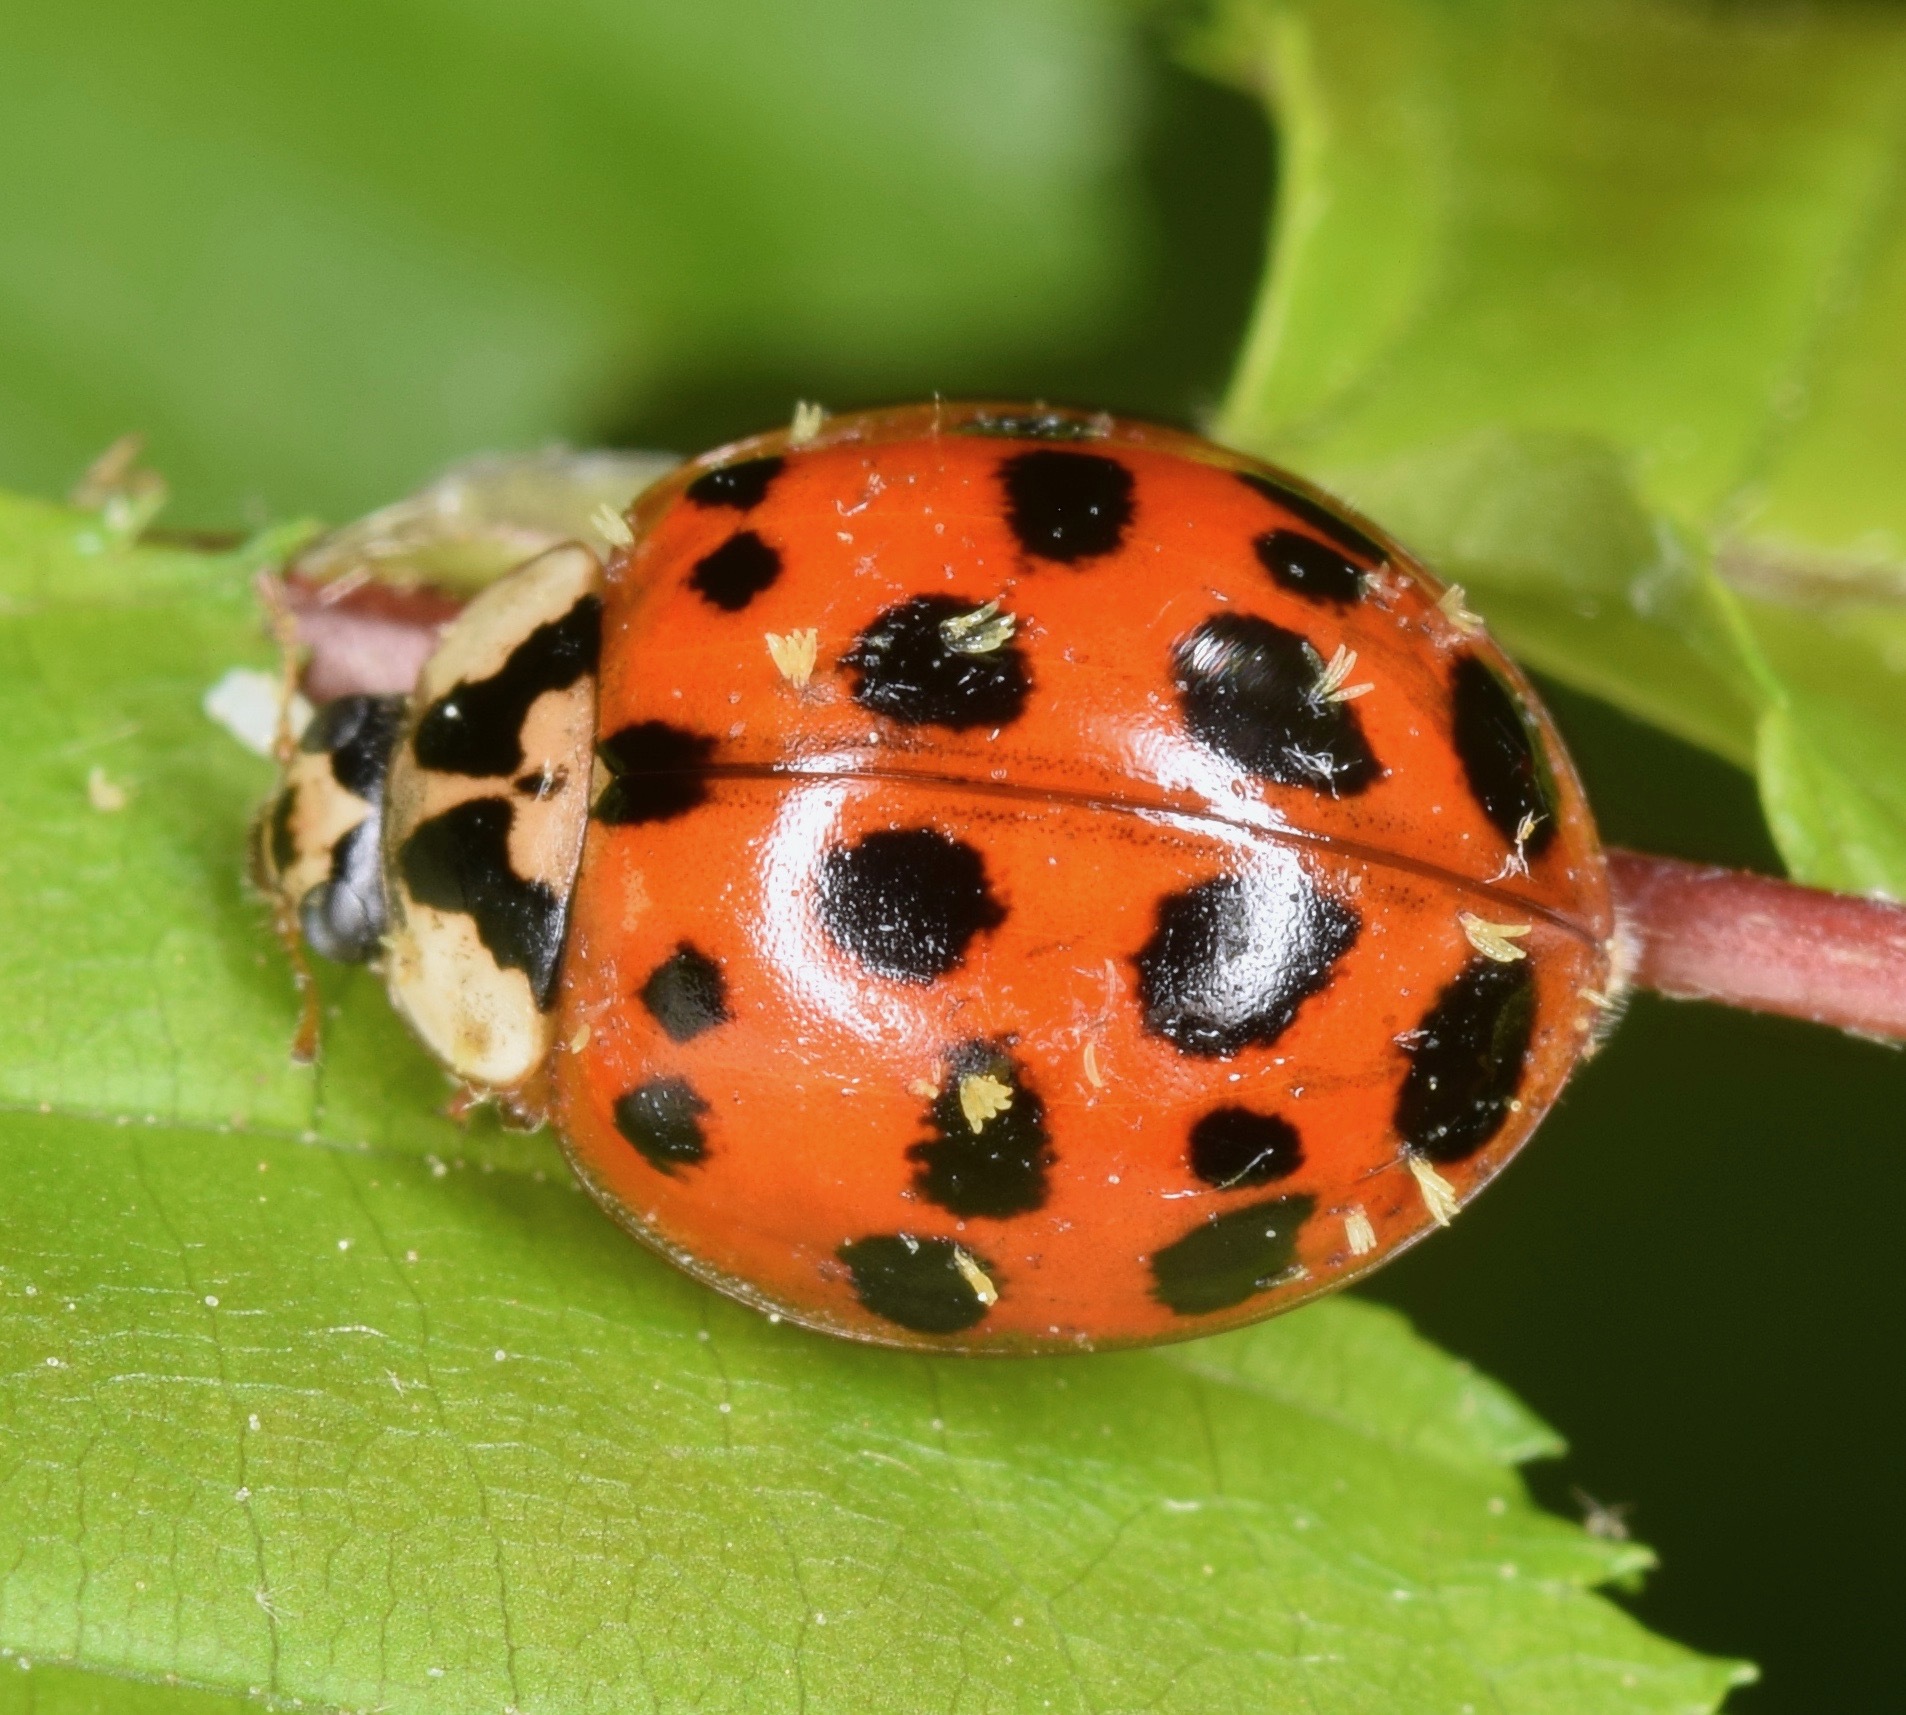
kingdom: Fungi
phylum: Ascomycota
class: Laboulbeniomycetes
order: Laboulbeniales
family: Laboulbeniaceae
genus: Hesperomyces
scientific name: Hesperomyces harmoniae
